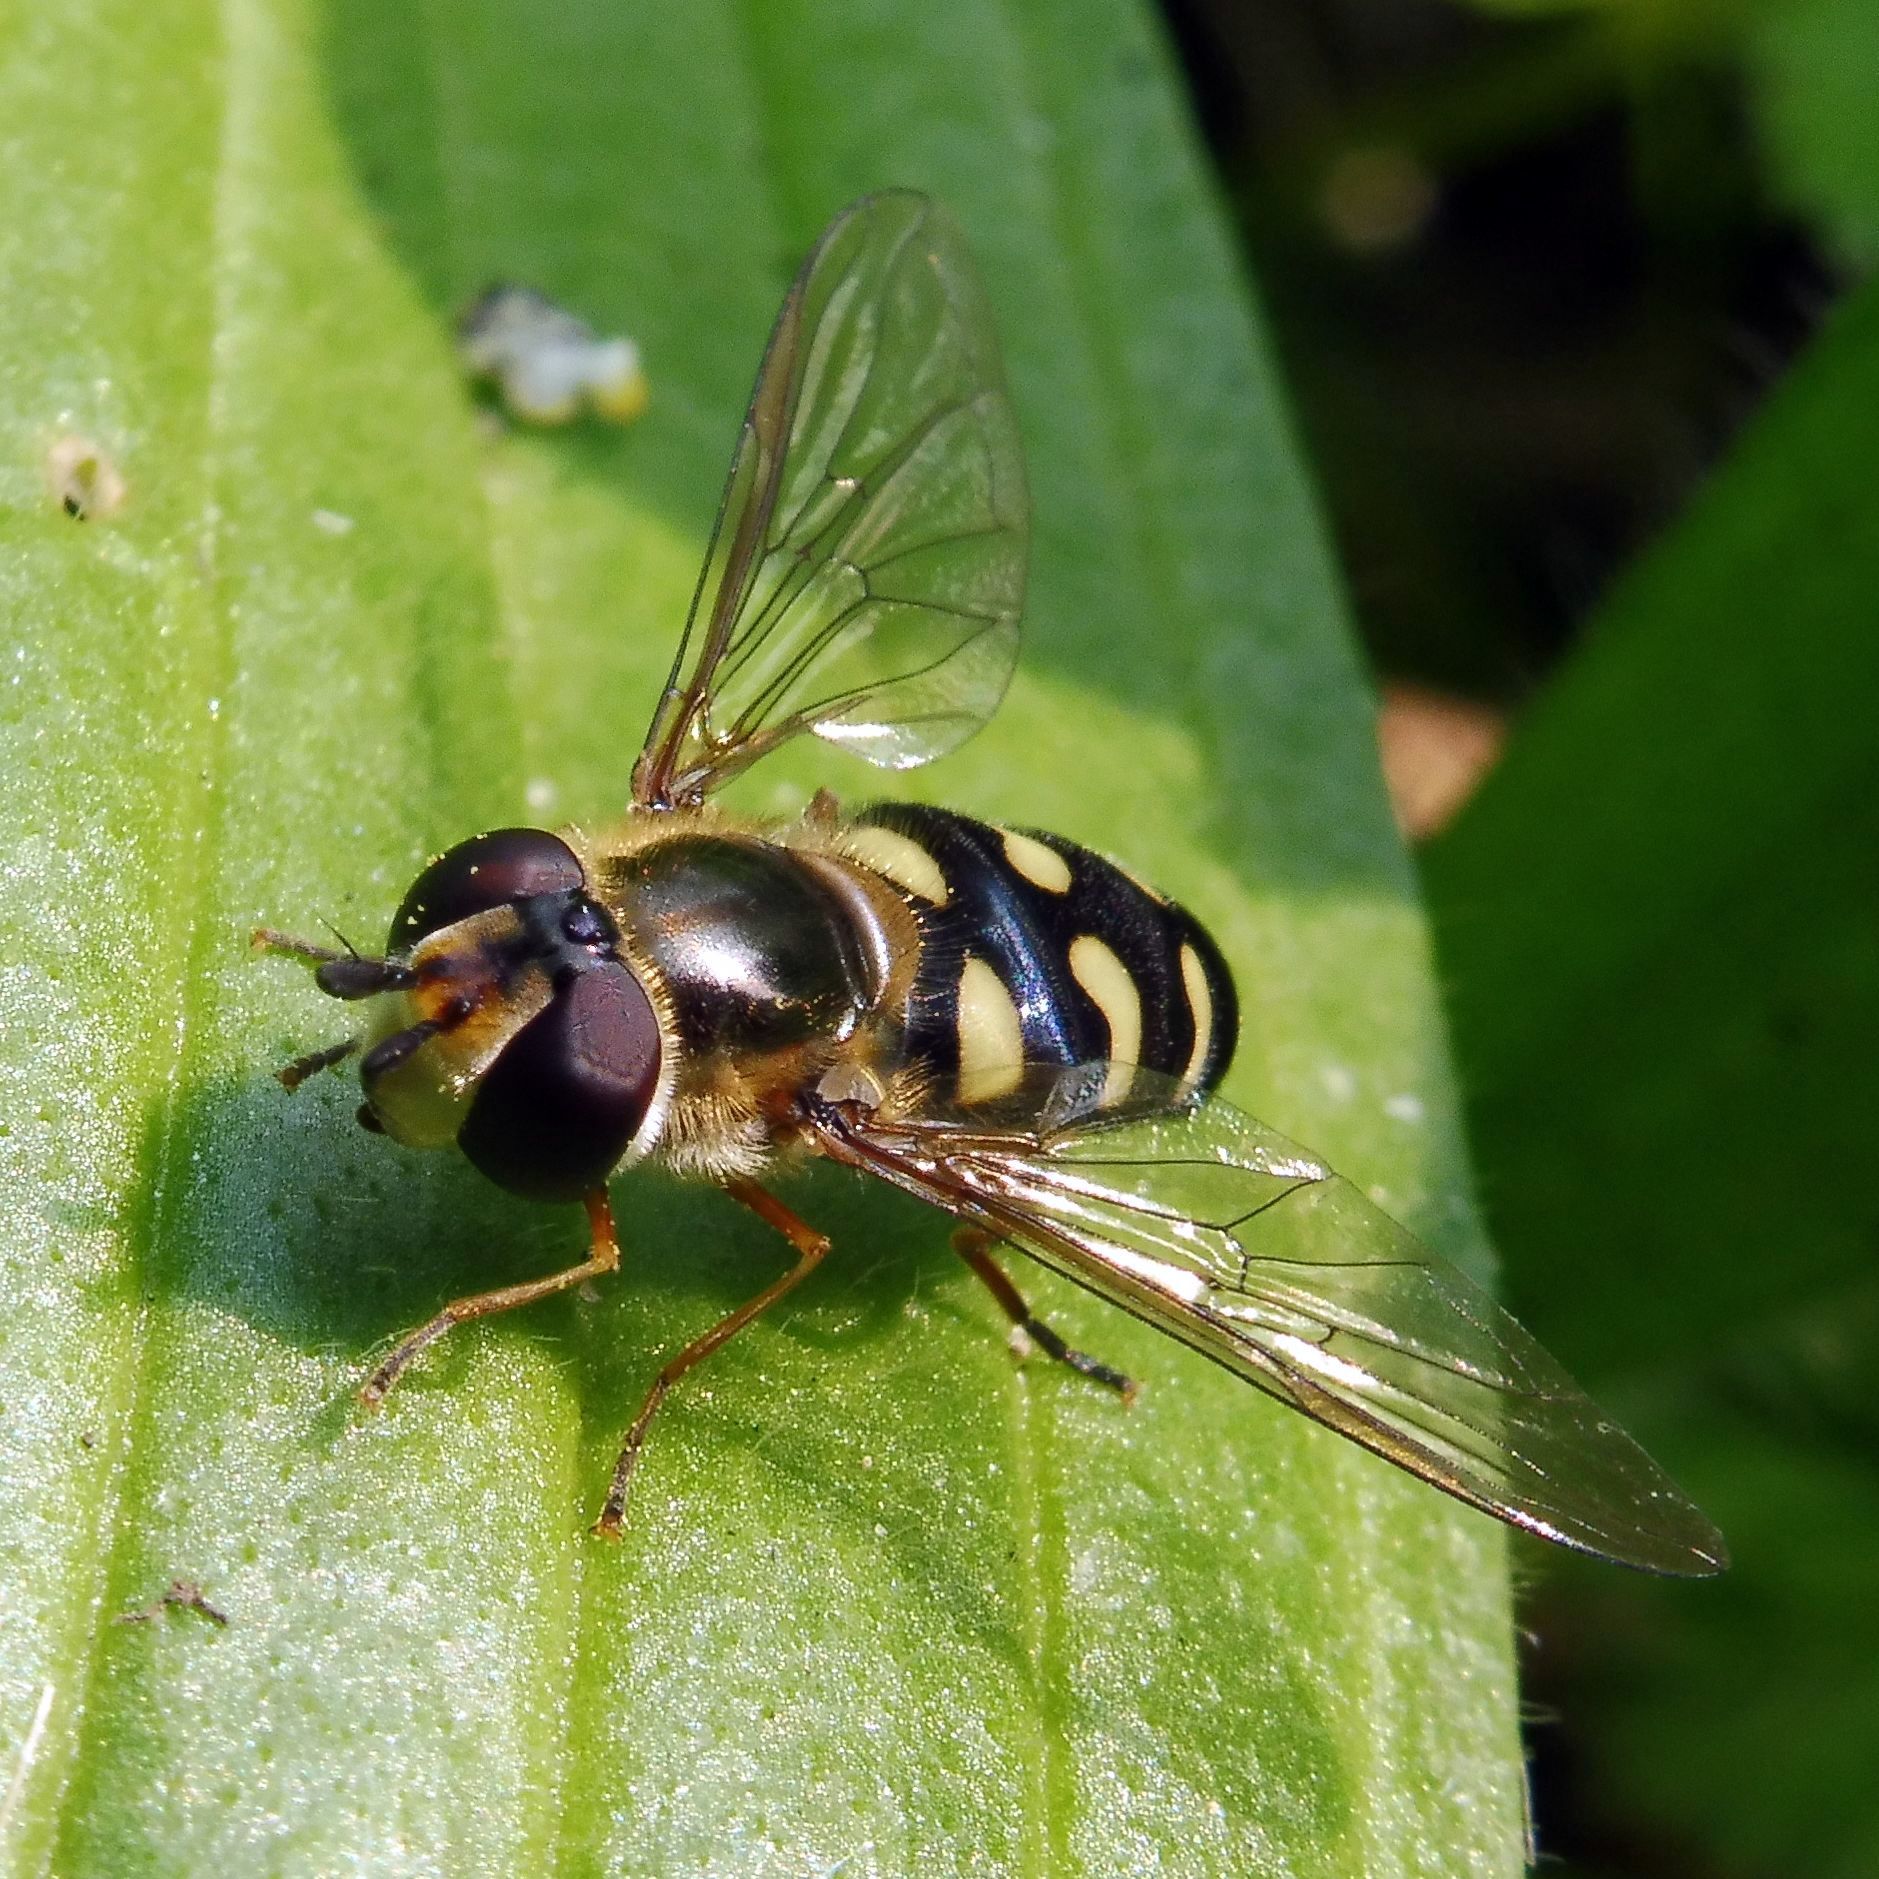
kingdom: Animalia
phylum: Arthropoda
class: Insecta
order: Diptera
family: Syrphidae
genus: Eupeodes
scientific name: Eupeodes luniger
